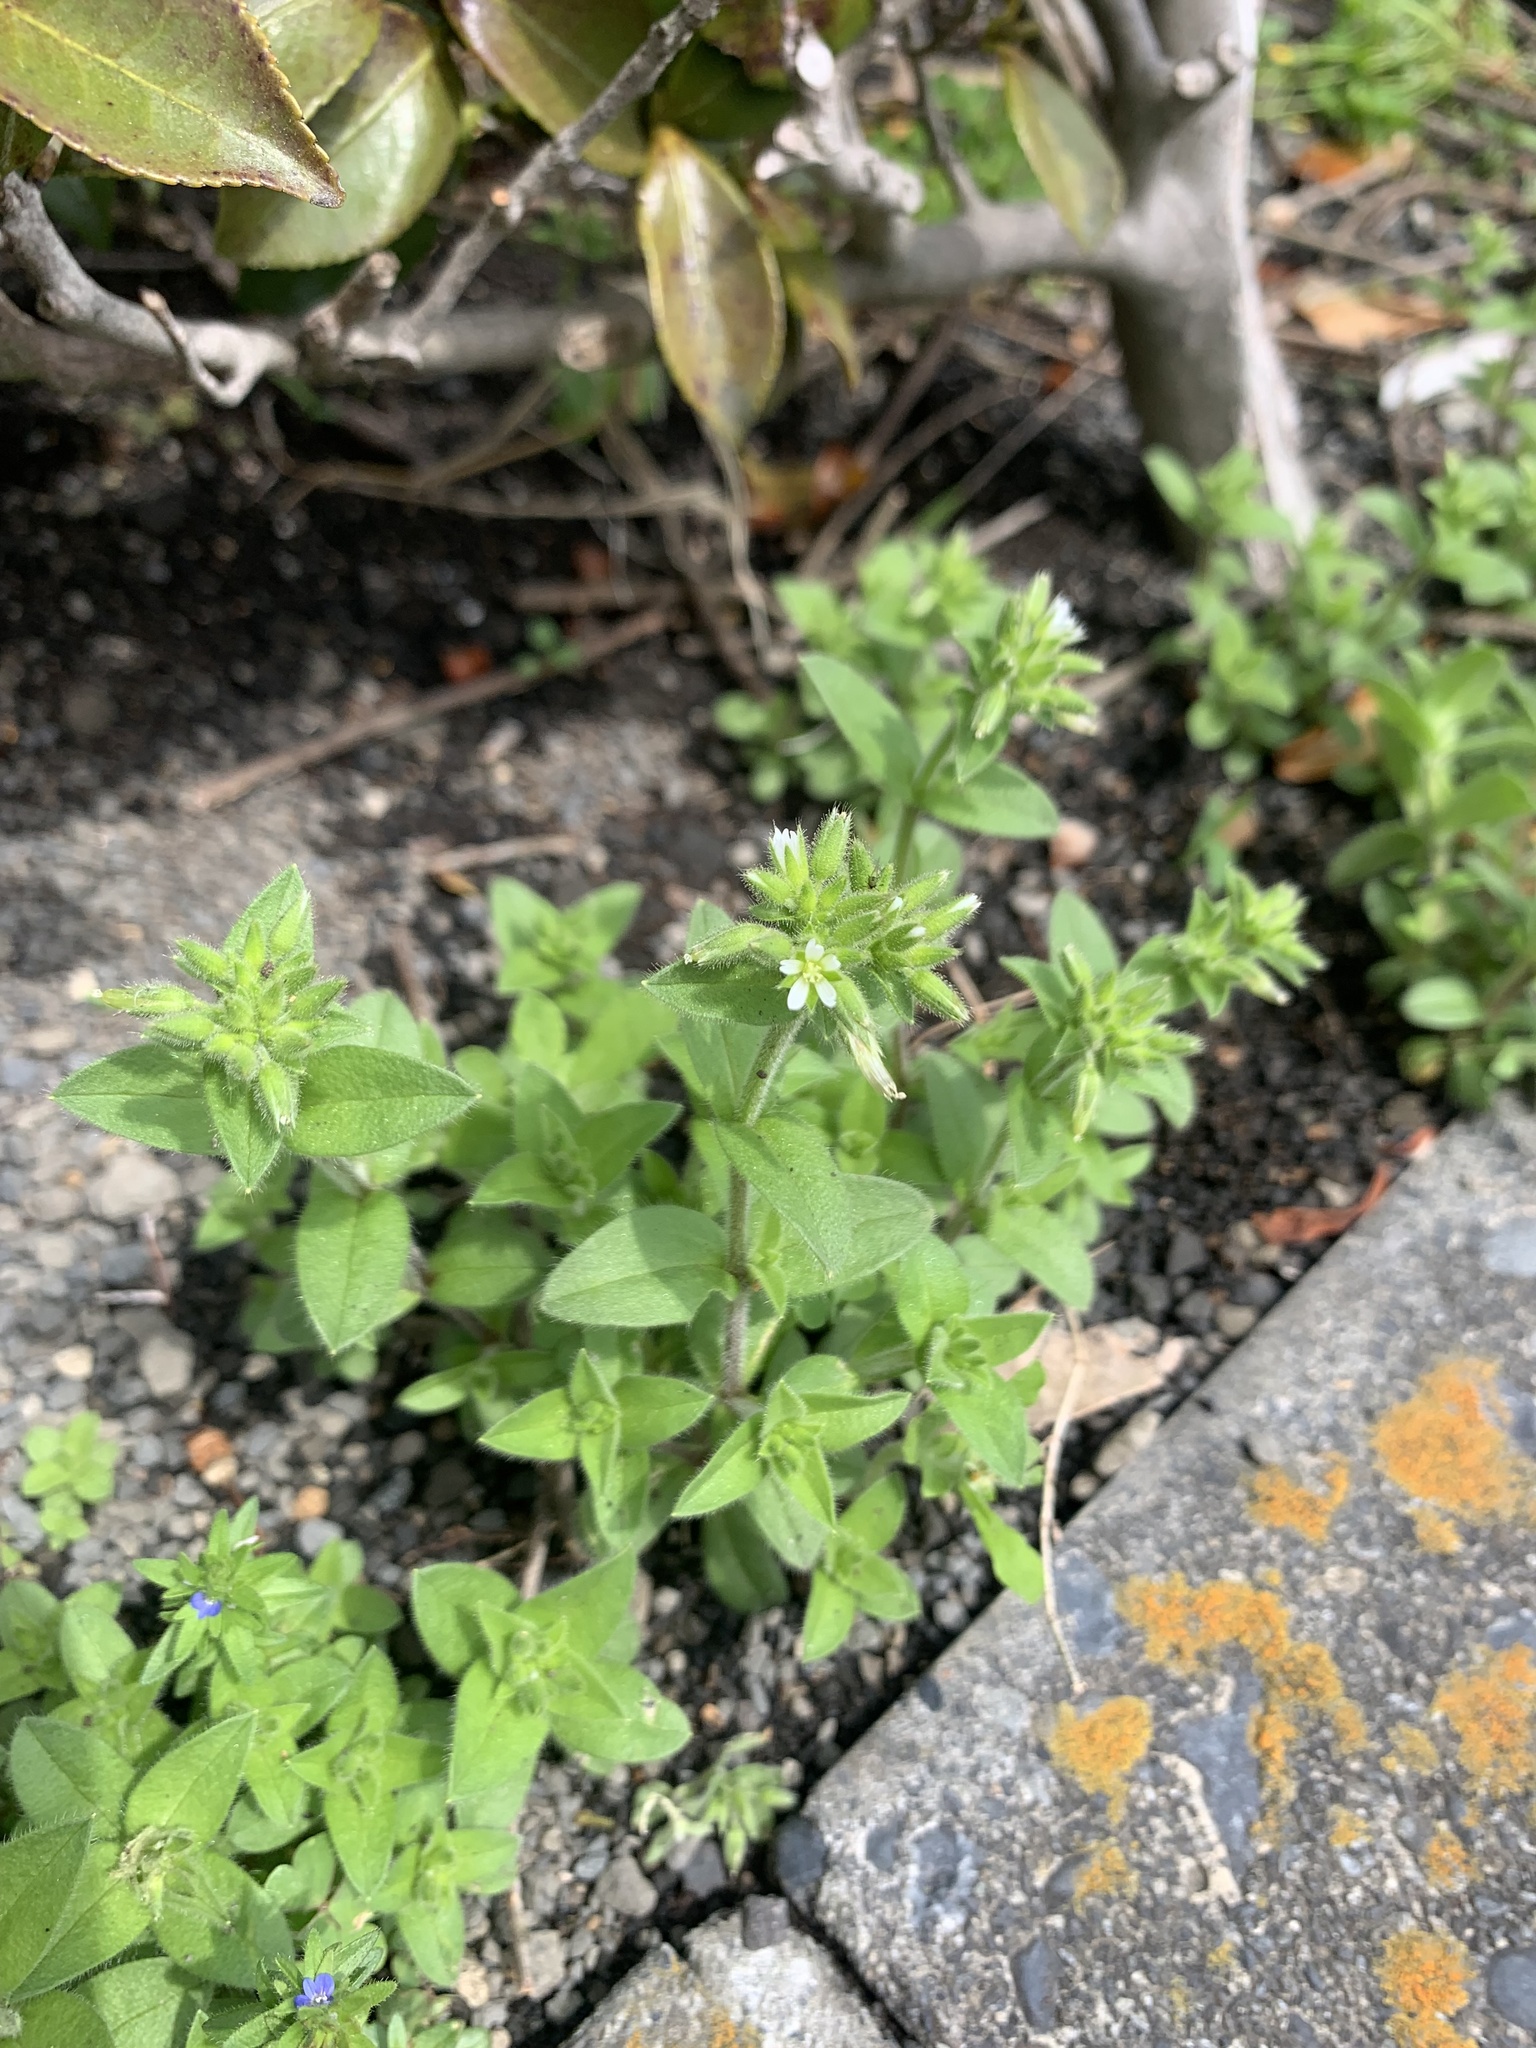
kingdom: Plantae
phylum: Tracheophyta
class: Magnoliopsida
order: Caryophyllales
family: Caryophyllaceae
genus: Cerastium
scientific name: Cerastium glomeratum
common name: Sticky chickweed
